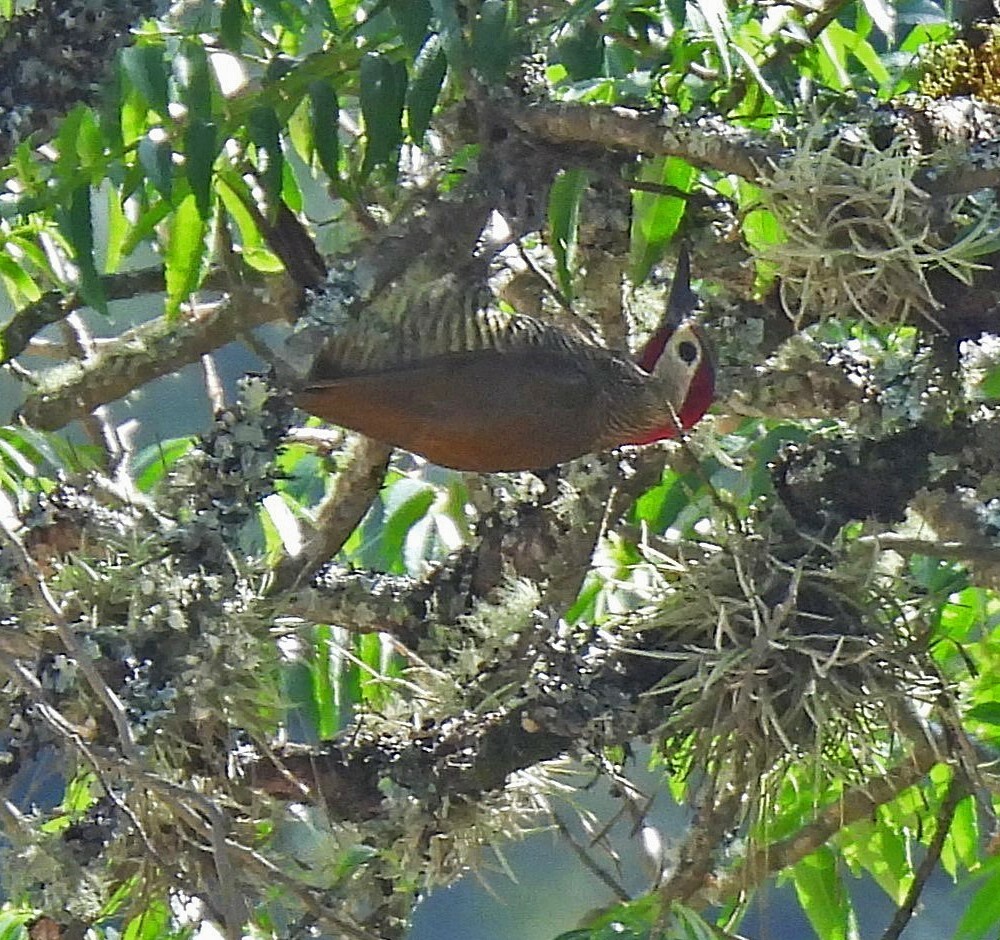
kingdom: Animalia
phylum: Chordata
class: Aves
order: Piciformes
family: Picidae
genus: Colaptes
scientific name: Colaptes rubiginosus
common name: Golden-olive woodpecker
